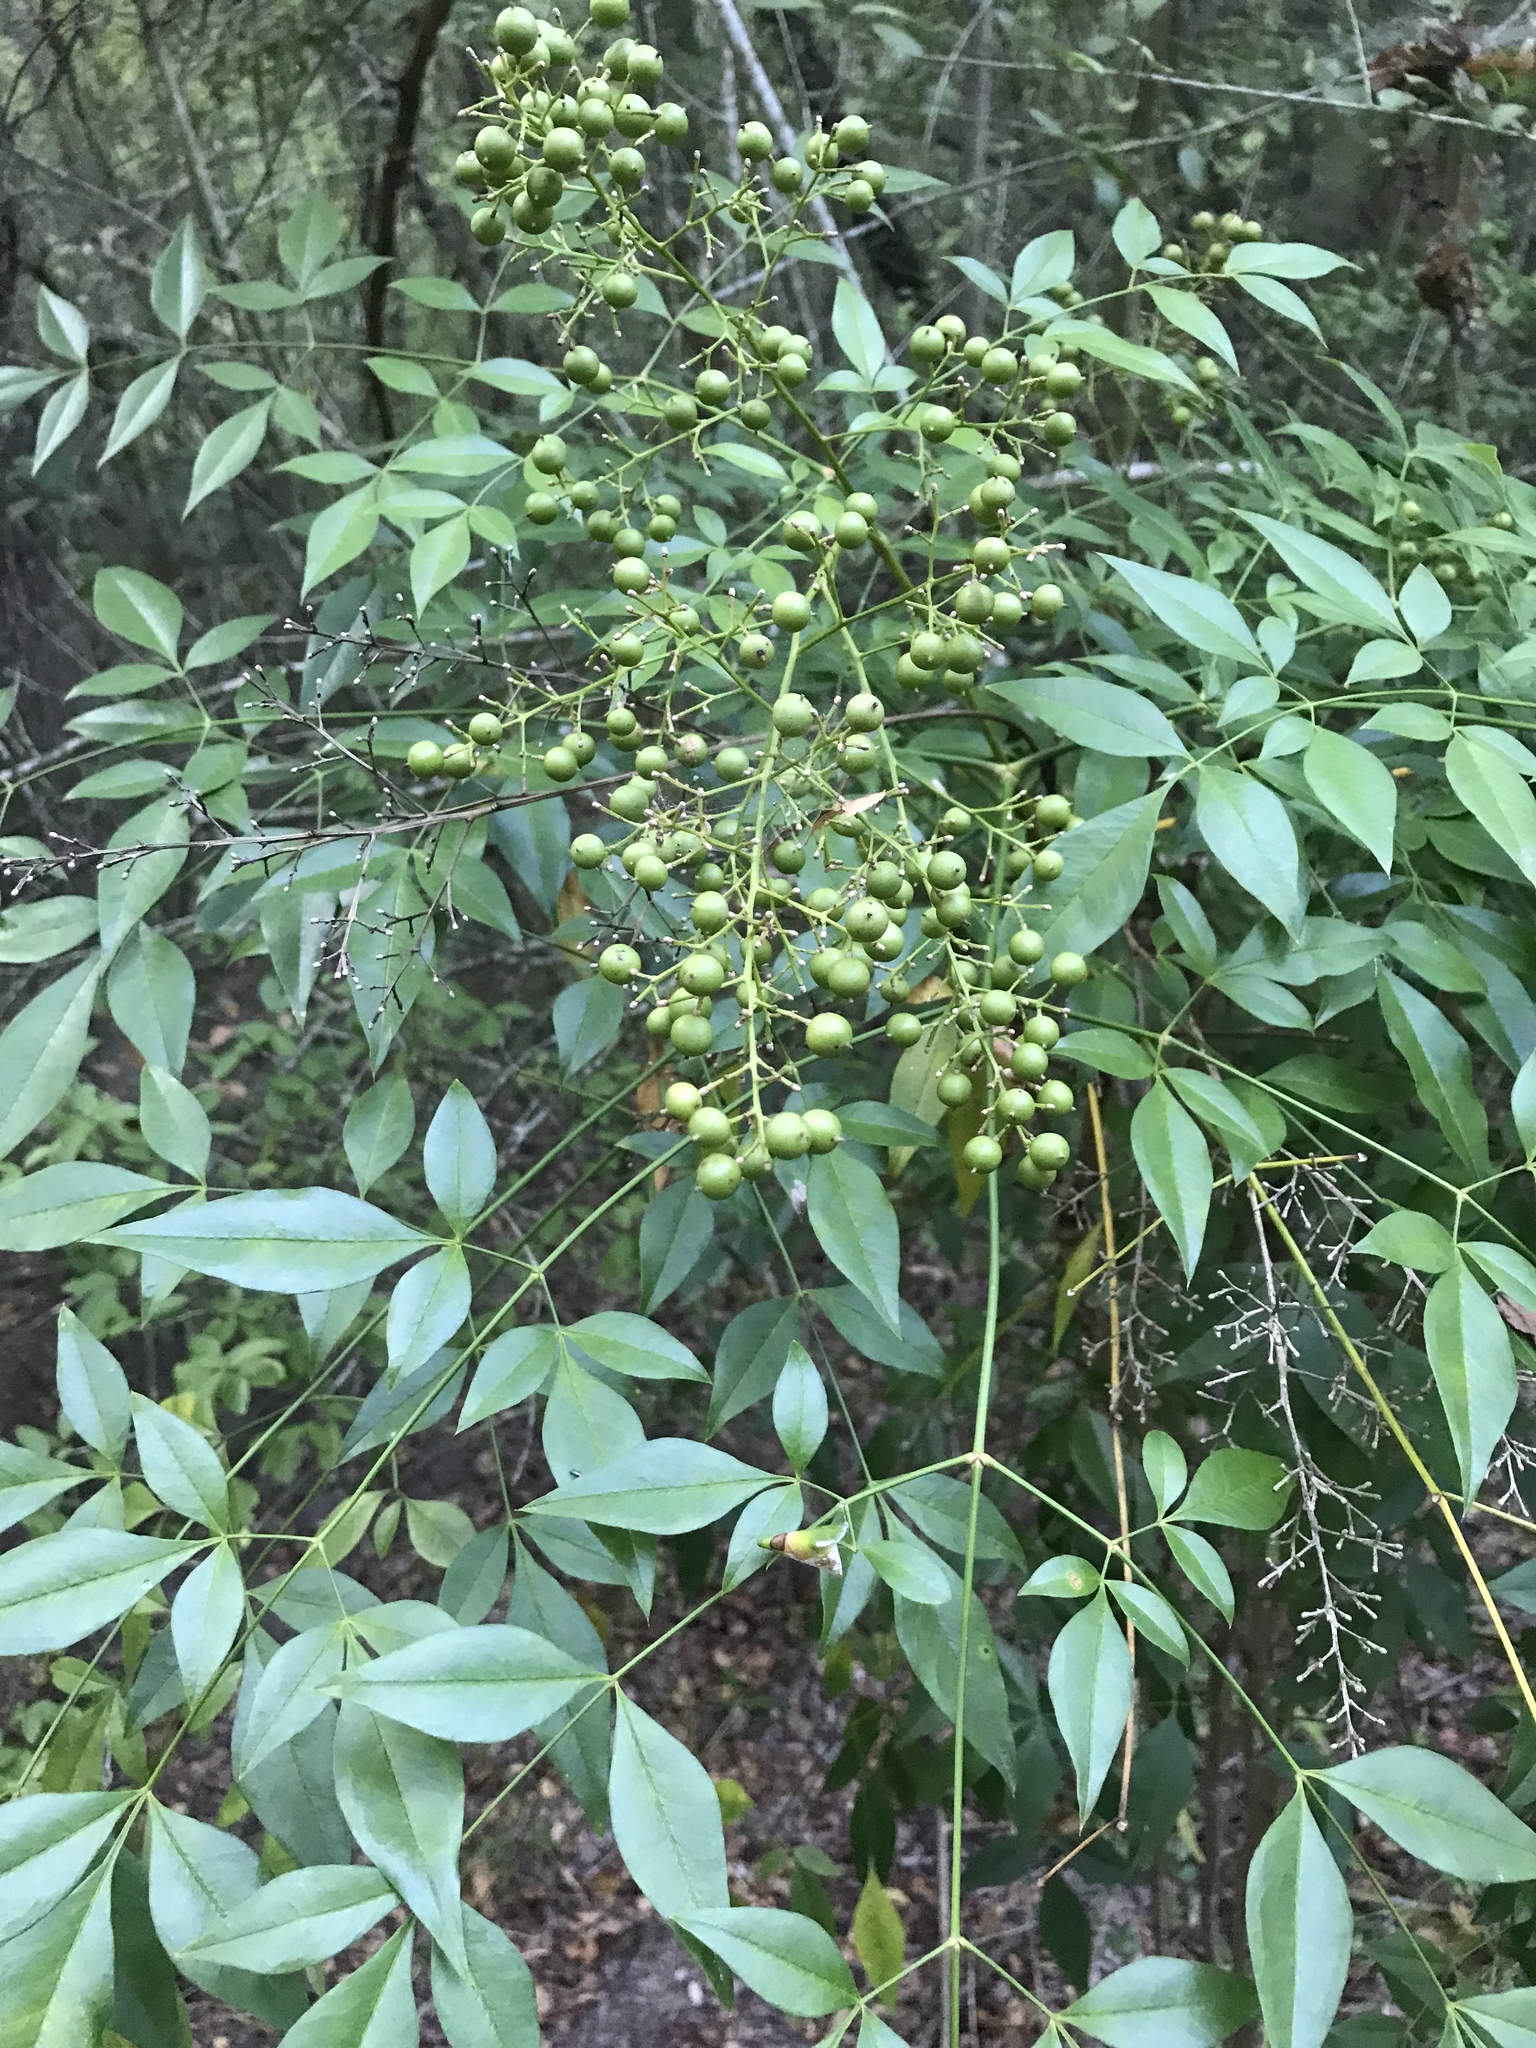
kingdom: Plantae
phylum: Tracheophyta
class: Magnoliopsida
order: Ranunculales
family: Berberidaceae
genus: Nandina
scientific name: Nandina domestica
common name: Sacred bamboo
